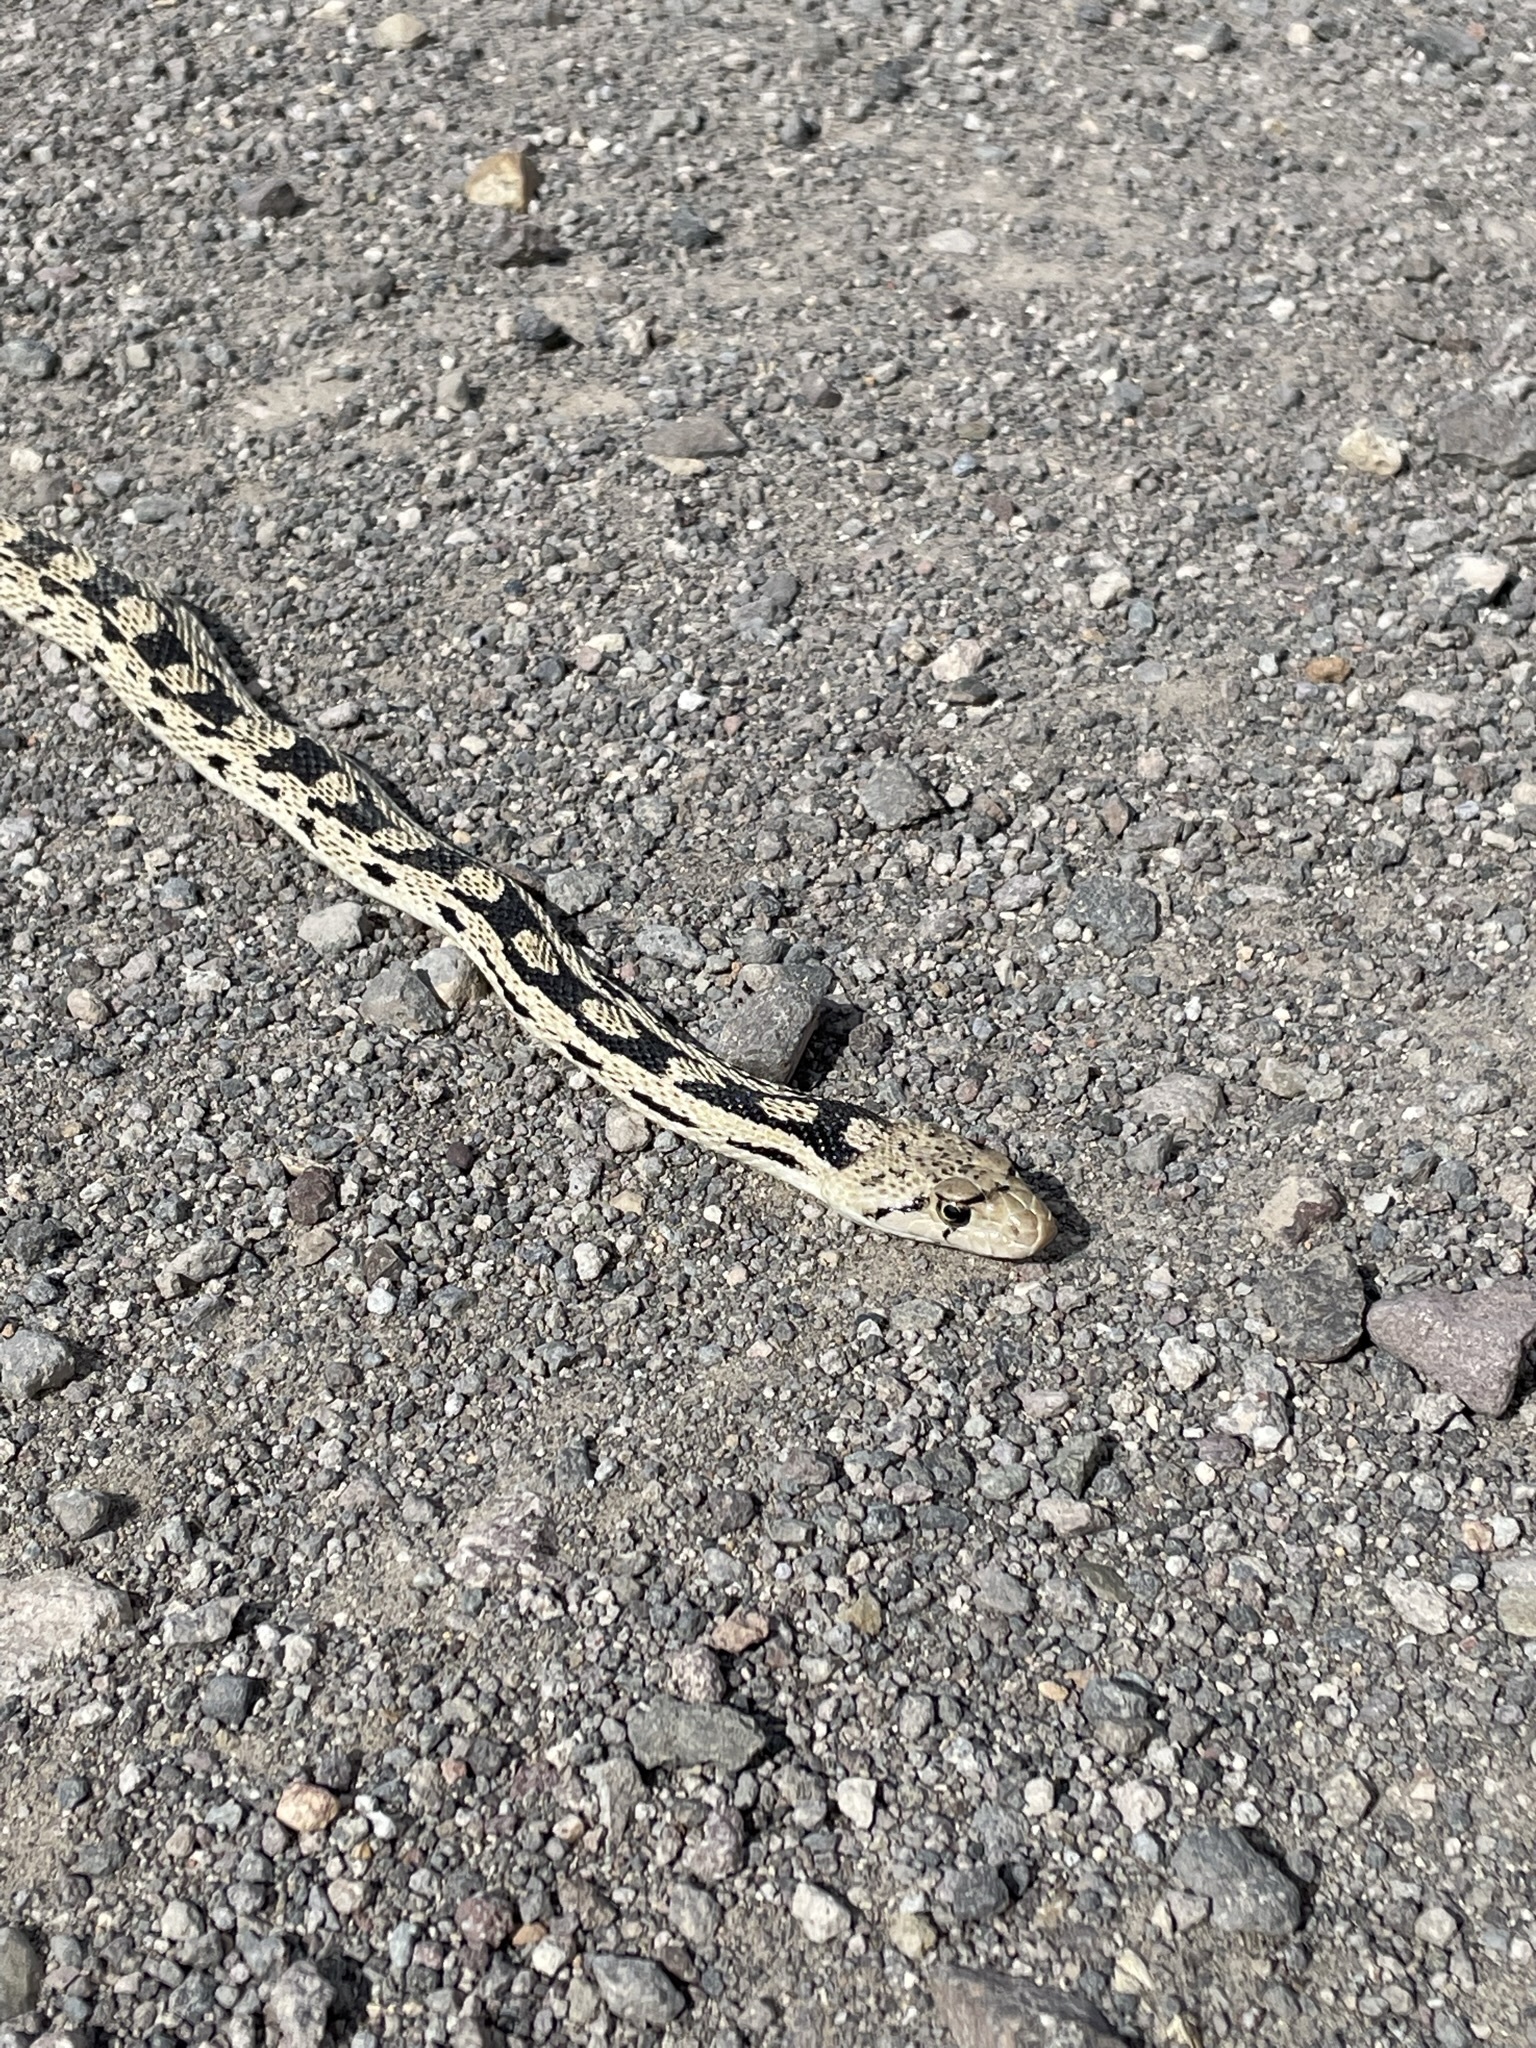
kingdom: Animalia
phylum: Chordata
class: Squamata
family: Colubridae
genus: Pituophis
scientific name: Pituophis catenifer
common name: Gopher snake
